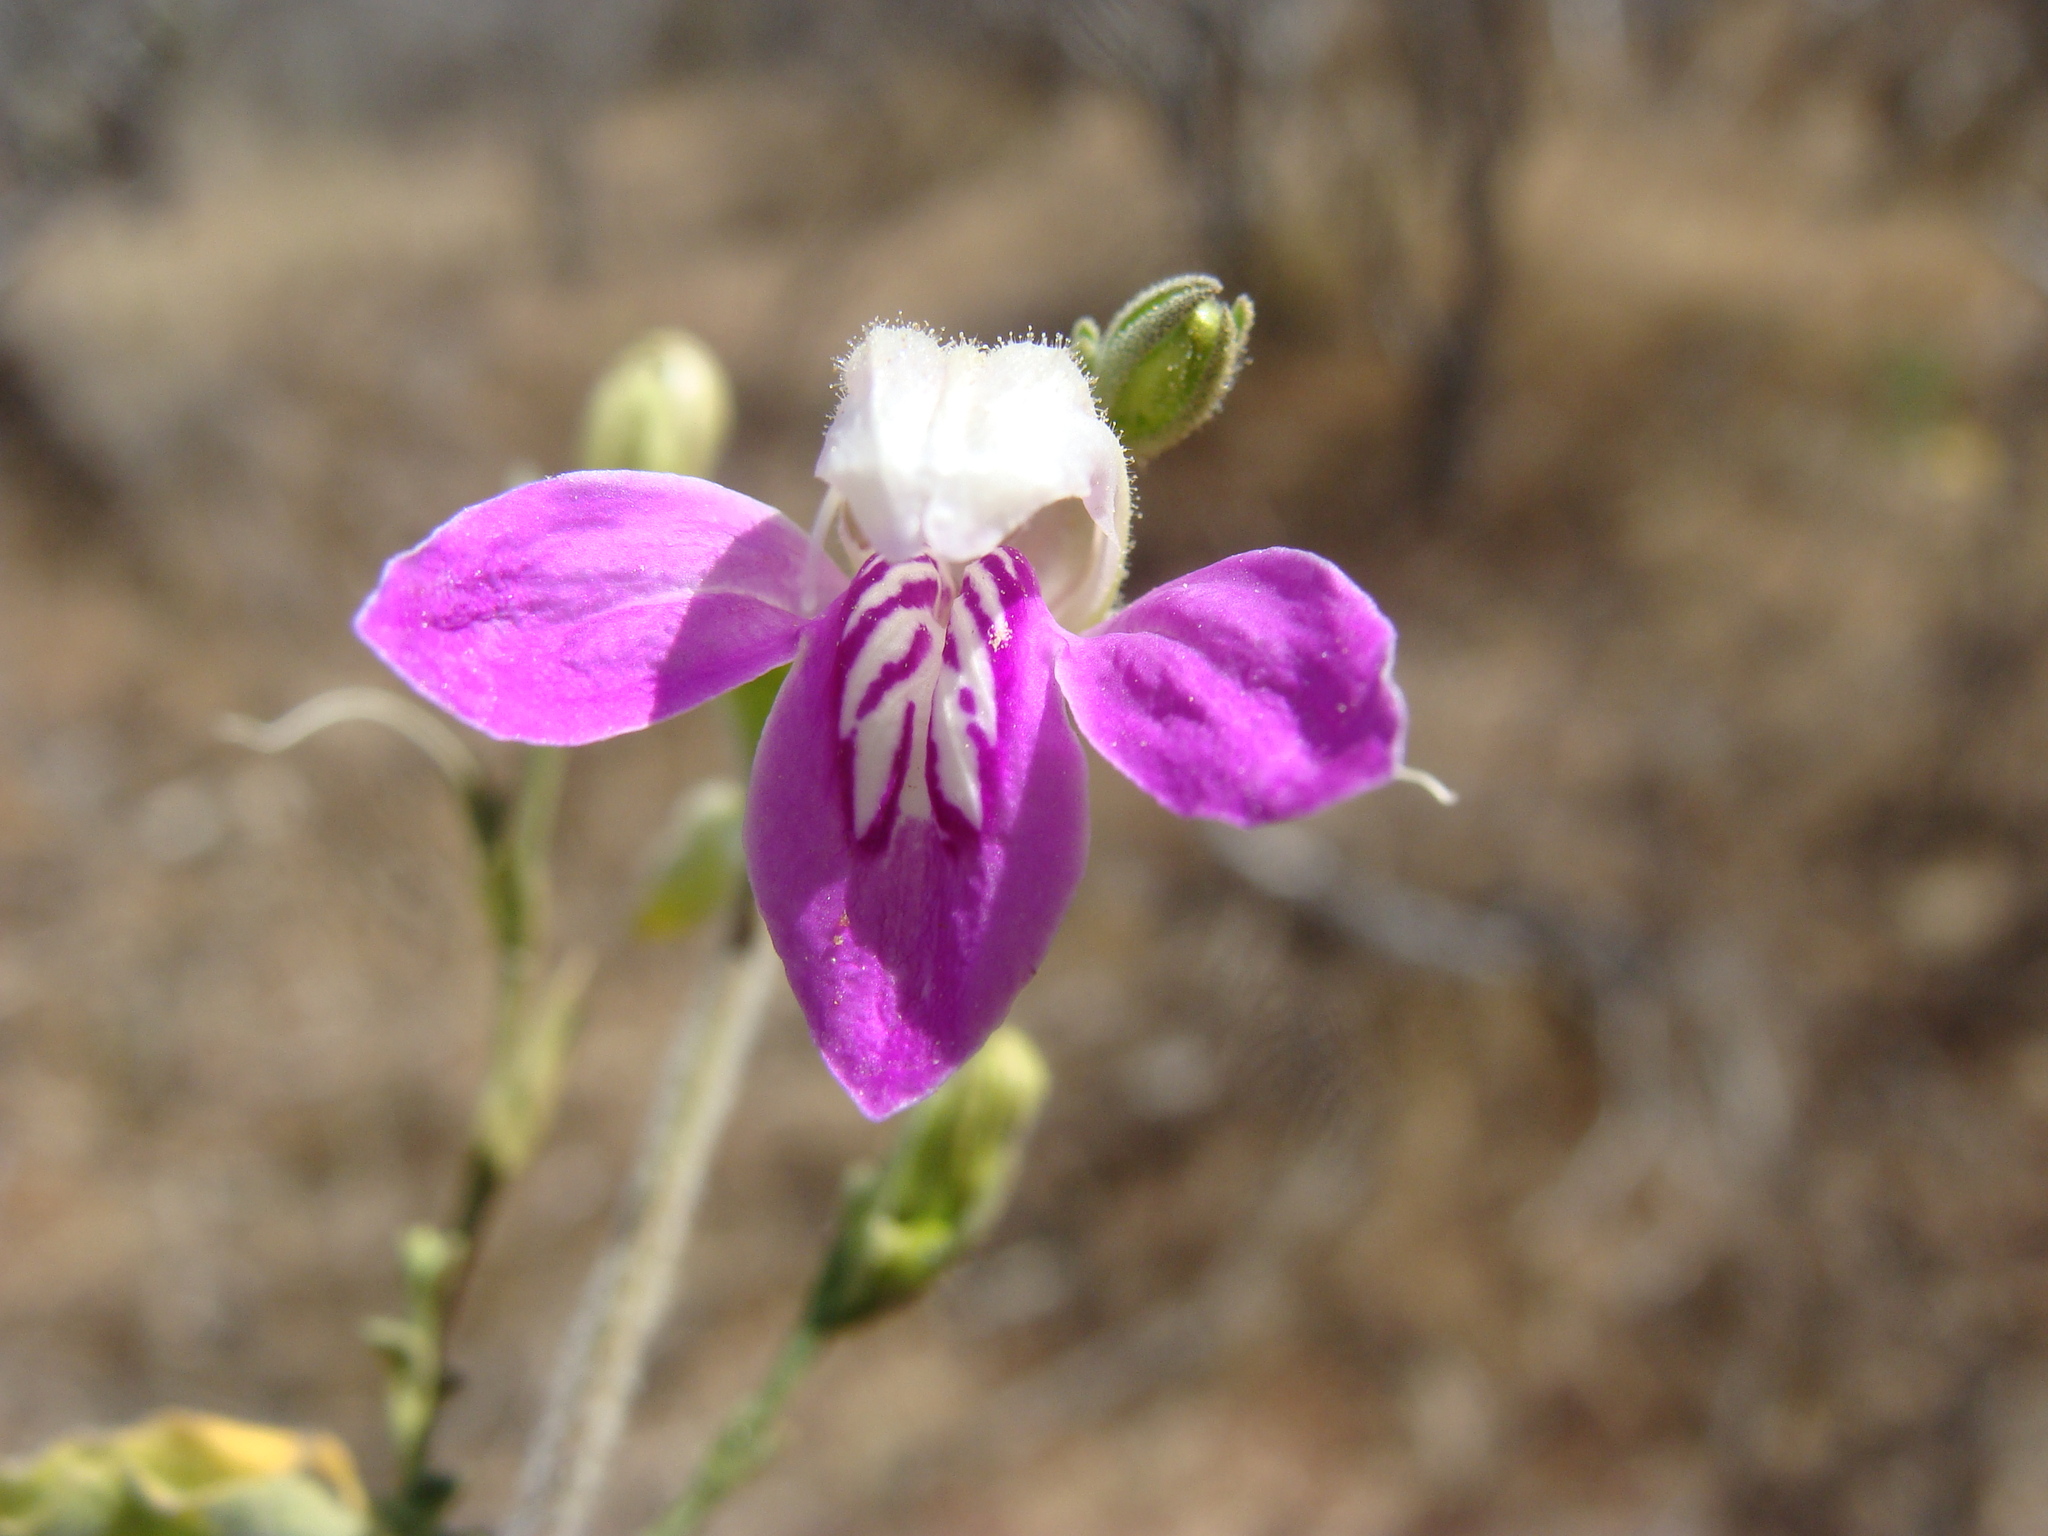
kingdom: Plantae
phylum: Tracheophyta
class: Magnoliopsida
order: Lamiales
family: Acanthaceae
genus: Justicia
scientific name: Justicia insolita
